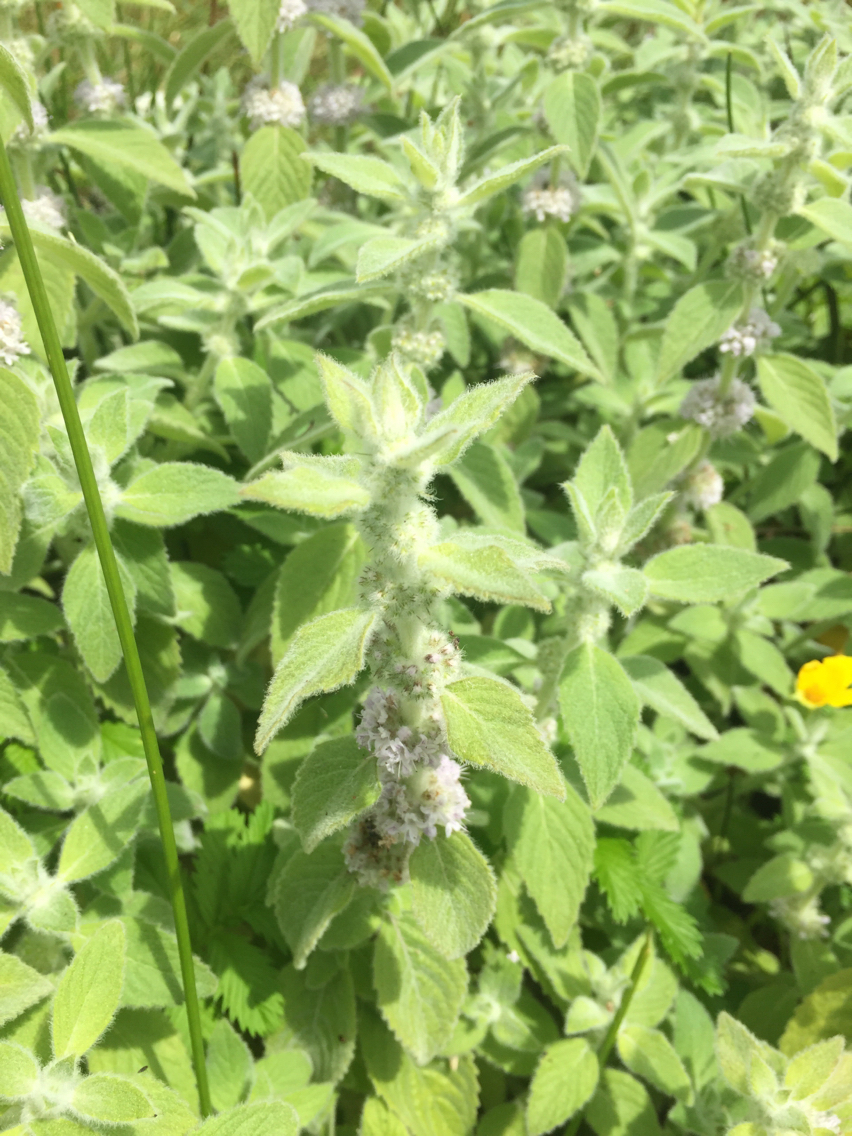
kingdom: Plantae
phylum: Tracheophyta
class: Magnoliopsida
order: Lamiales
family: Lamiaceae
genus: Mentha
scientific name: Mentha arvensis
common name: Corn mint
